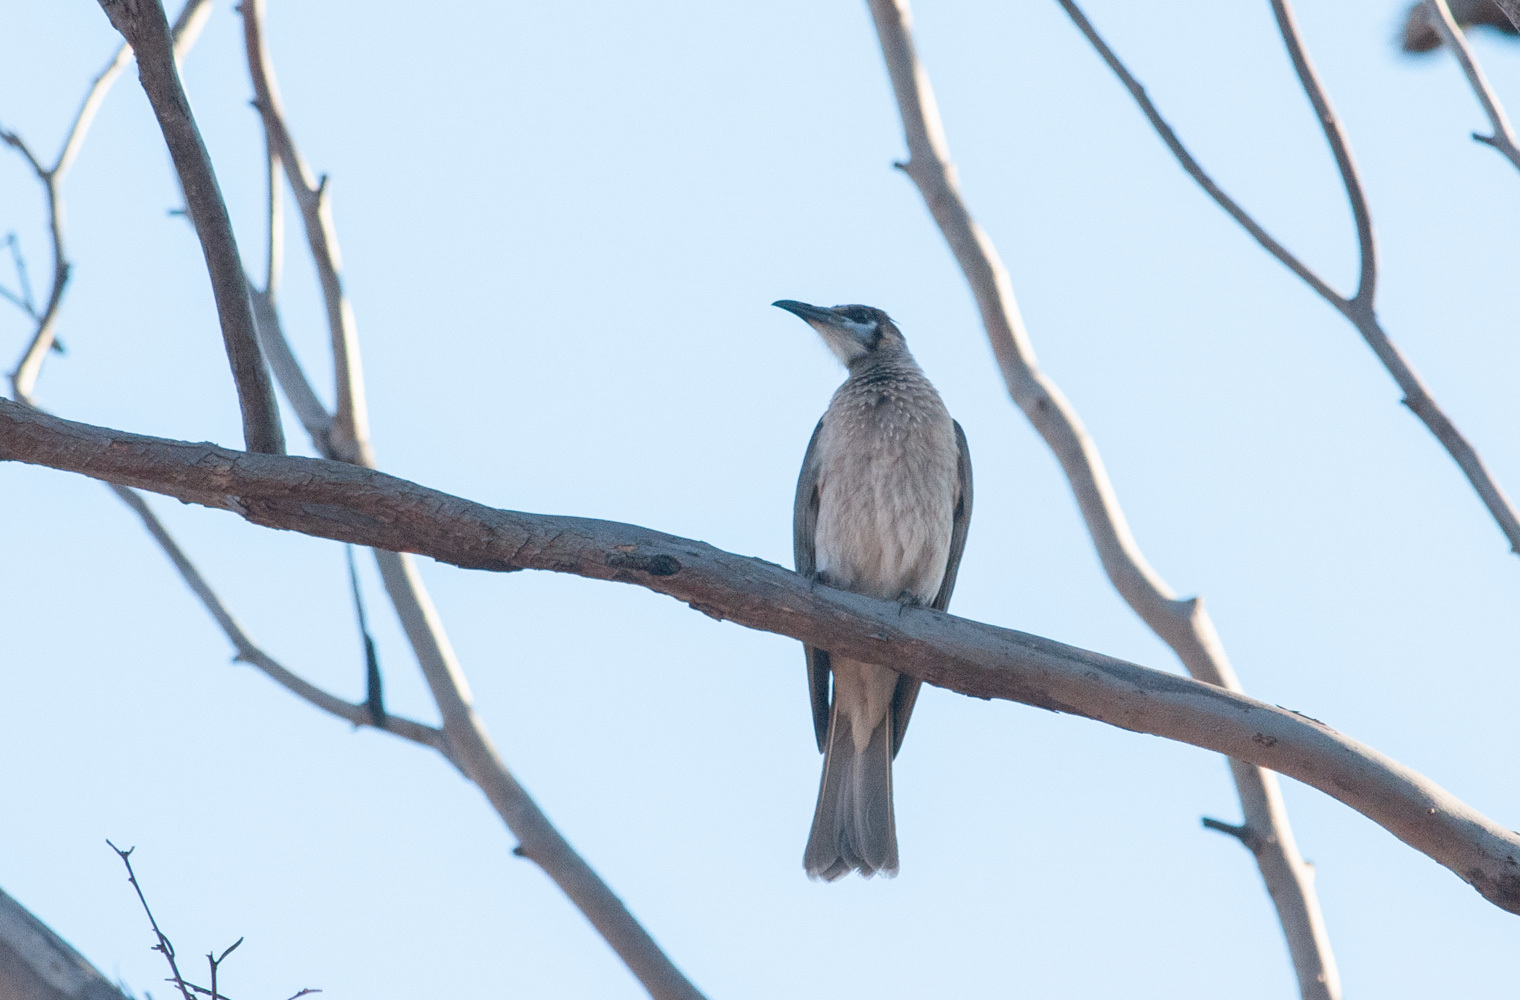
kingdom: Animalia
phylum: Chordata
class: Aves
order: Passeriformes
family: Meliphagidae
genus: Philemon
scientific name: Philemon citreogularis
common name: Little friarbird
